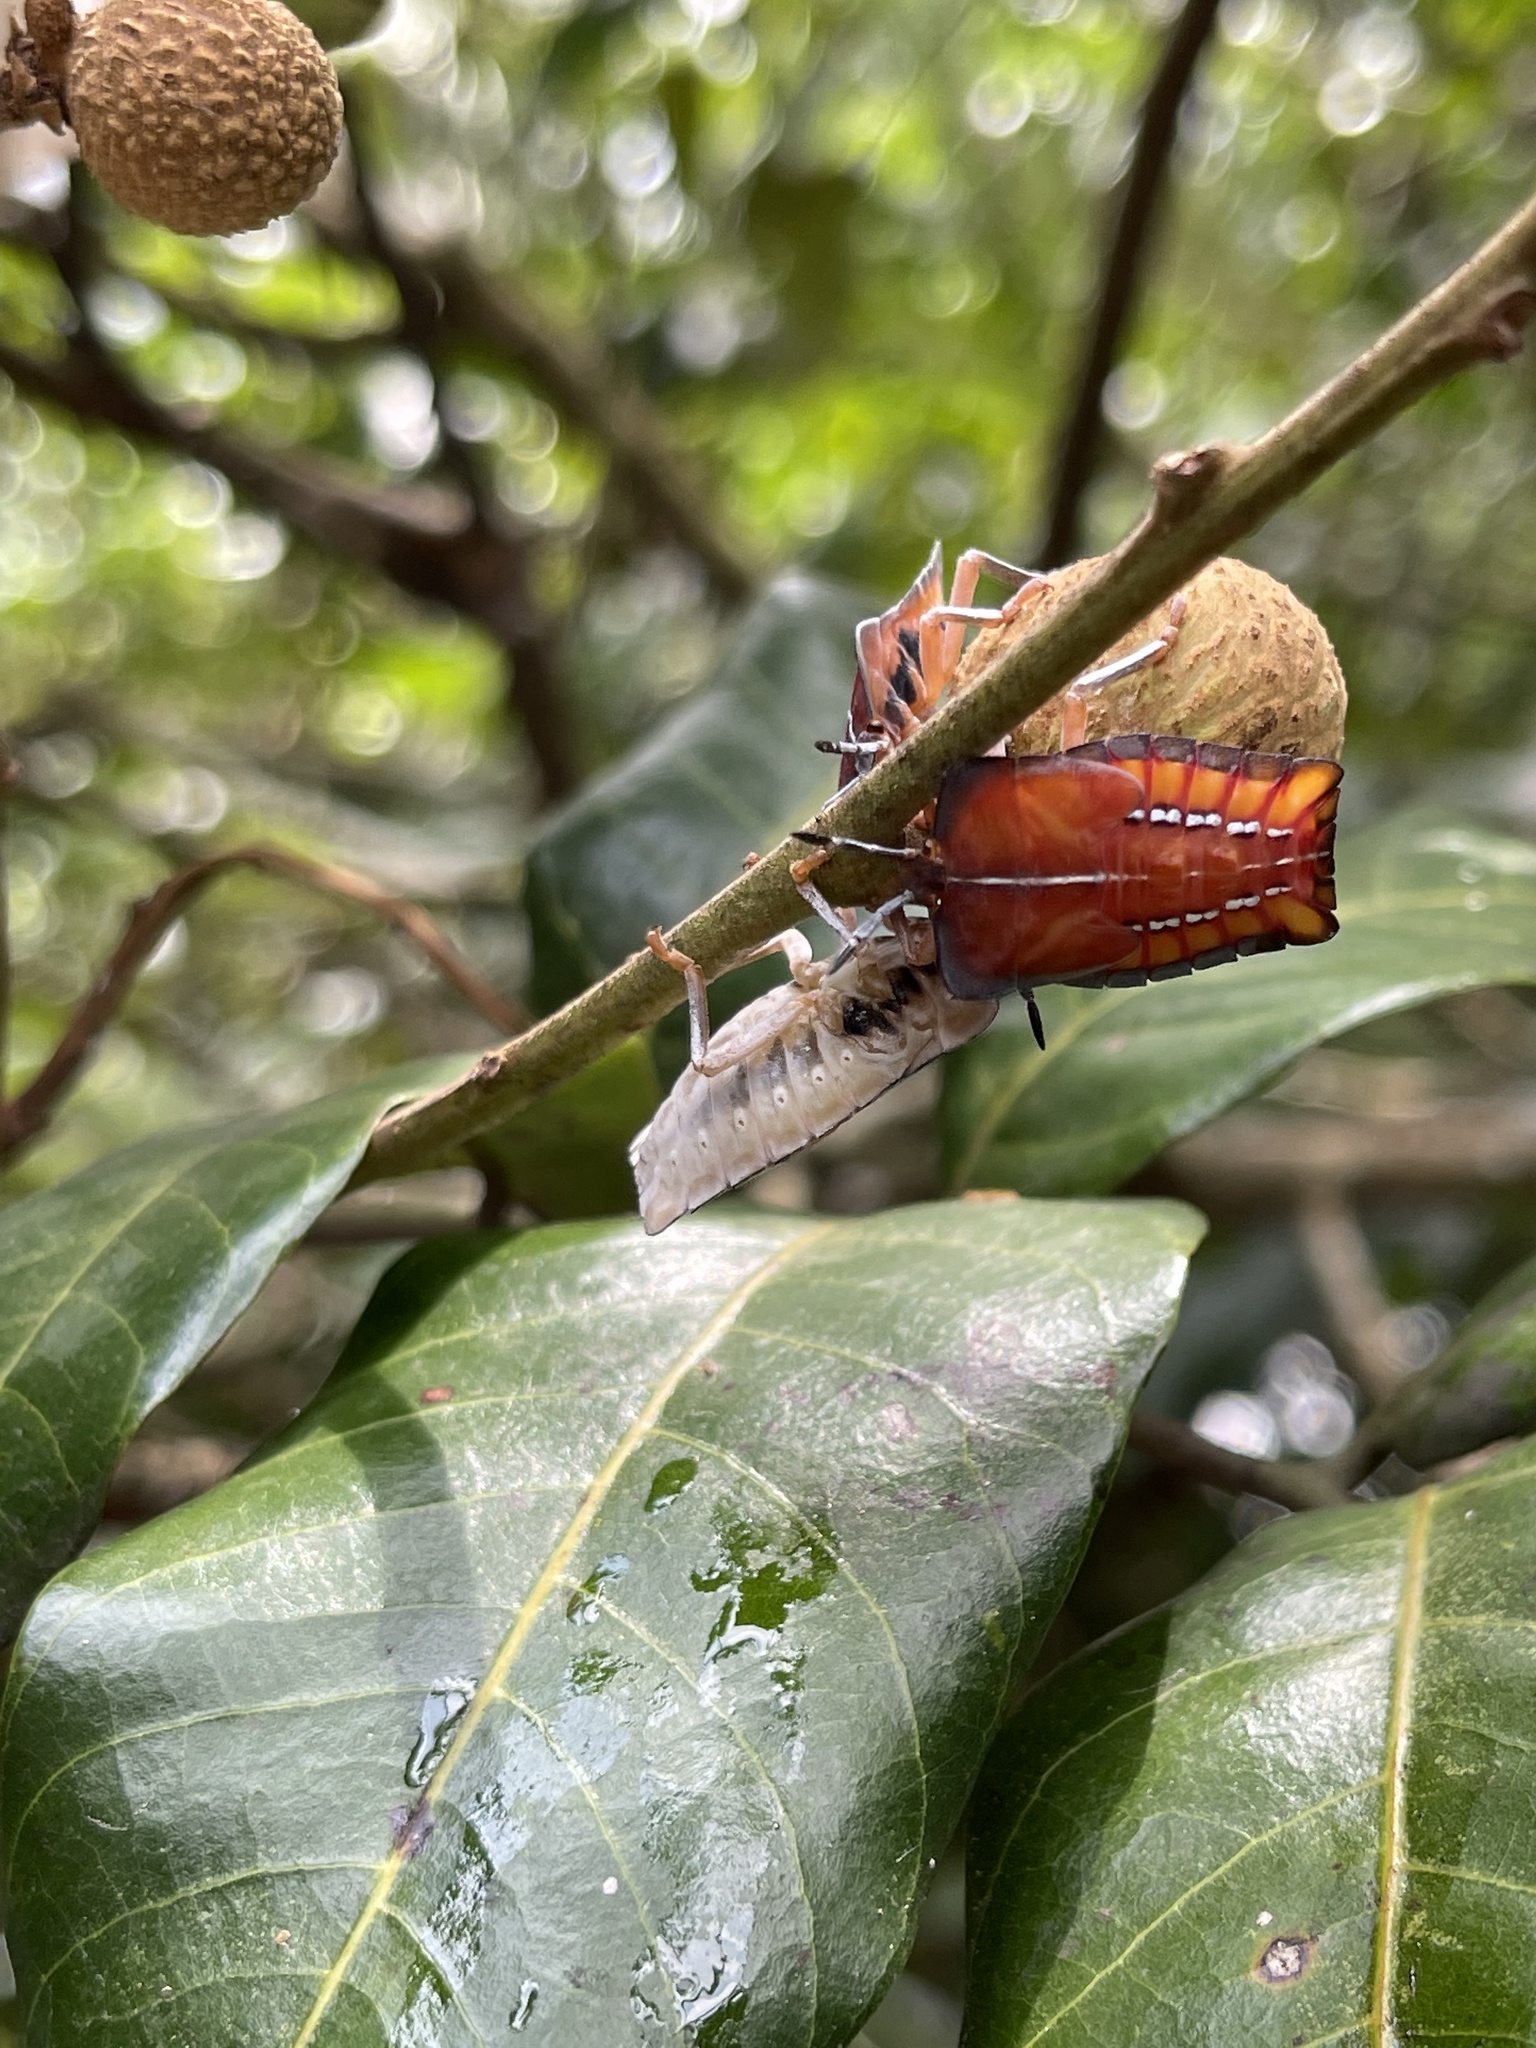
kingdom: Animalia
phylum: Arthropoda
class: Insecta
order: Hemiptera
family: Tessaratomidae
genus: Tessaratoma
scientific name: Tessaratoma papillosa
